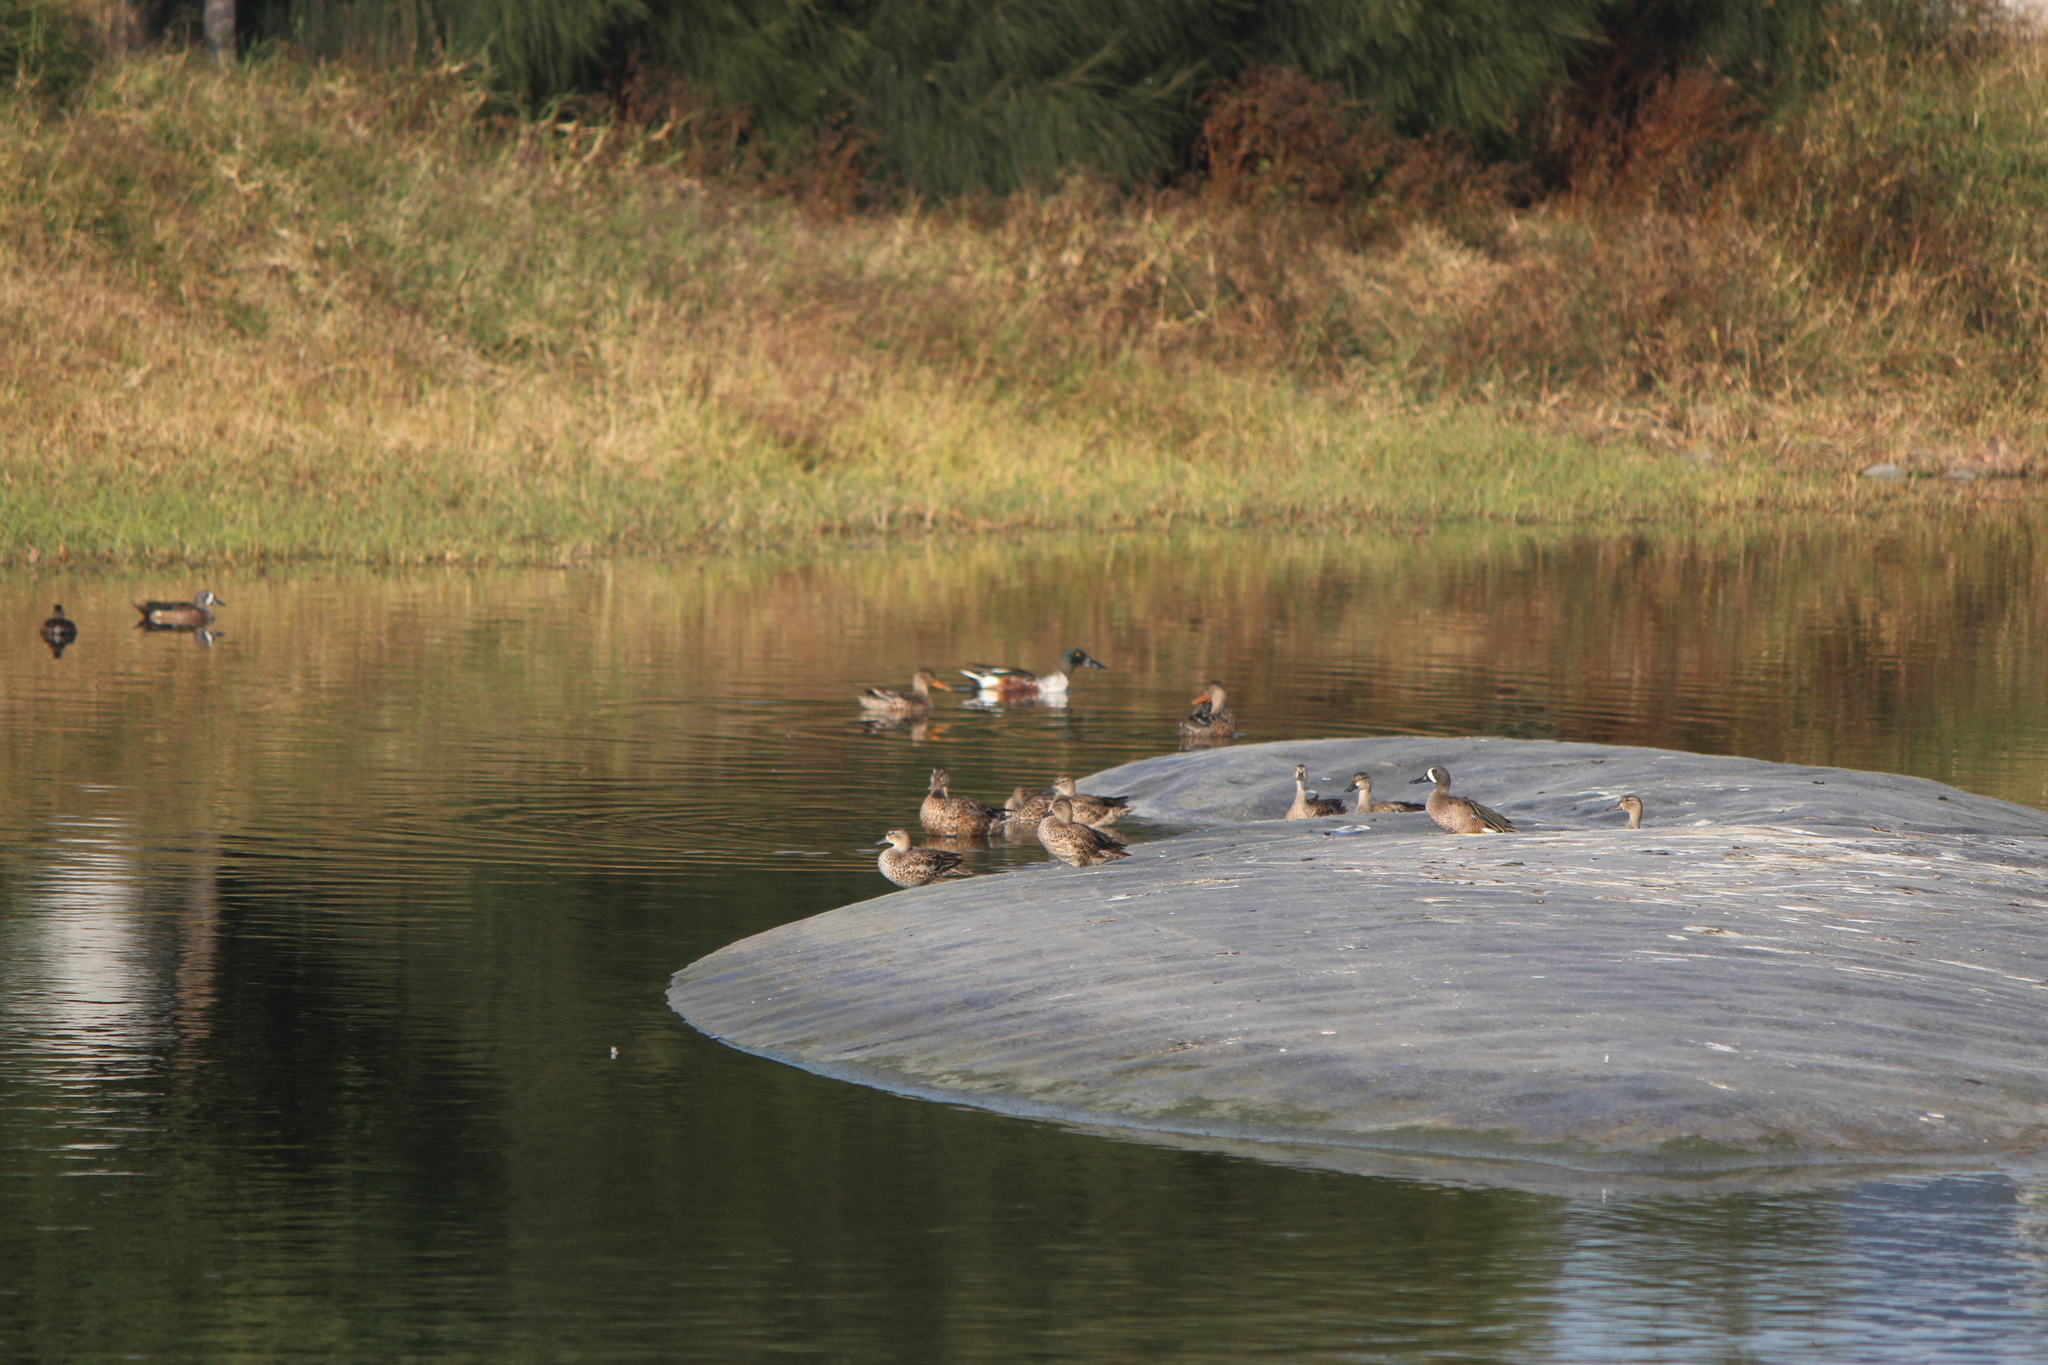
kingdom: Animalia
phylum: Chordata
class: Aves
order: Anseriformes
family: Anatidae
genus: Spatula
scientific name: Spatula clypeata
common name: Northern shoveler
